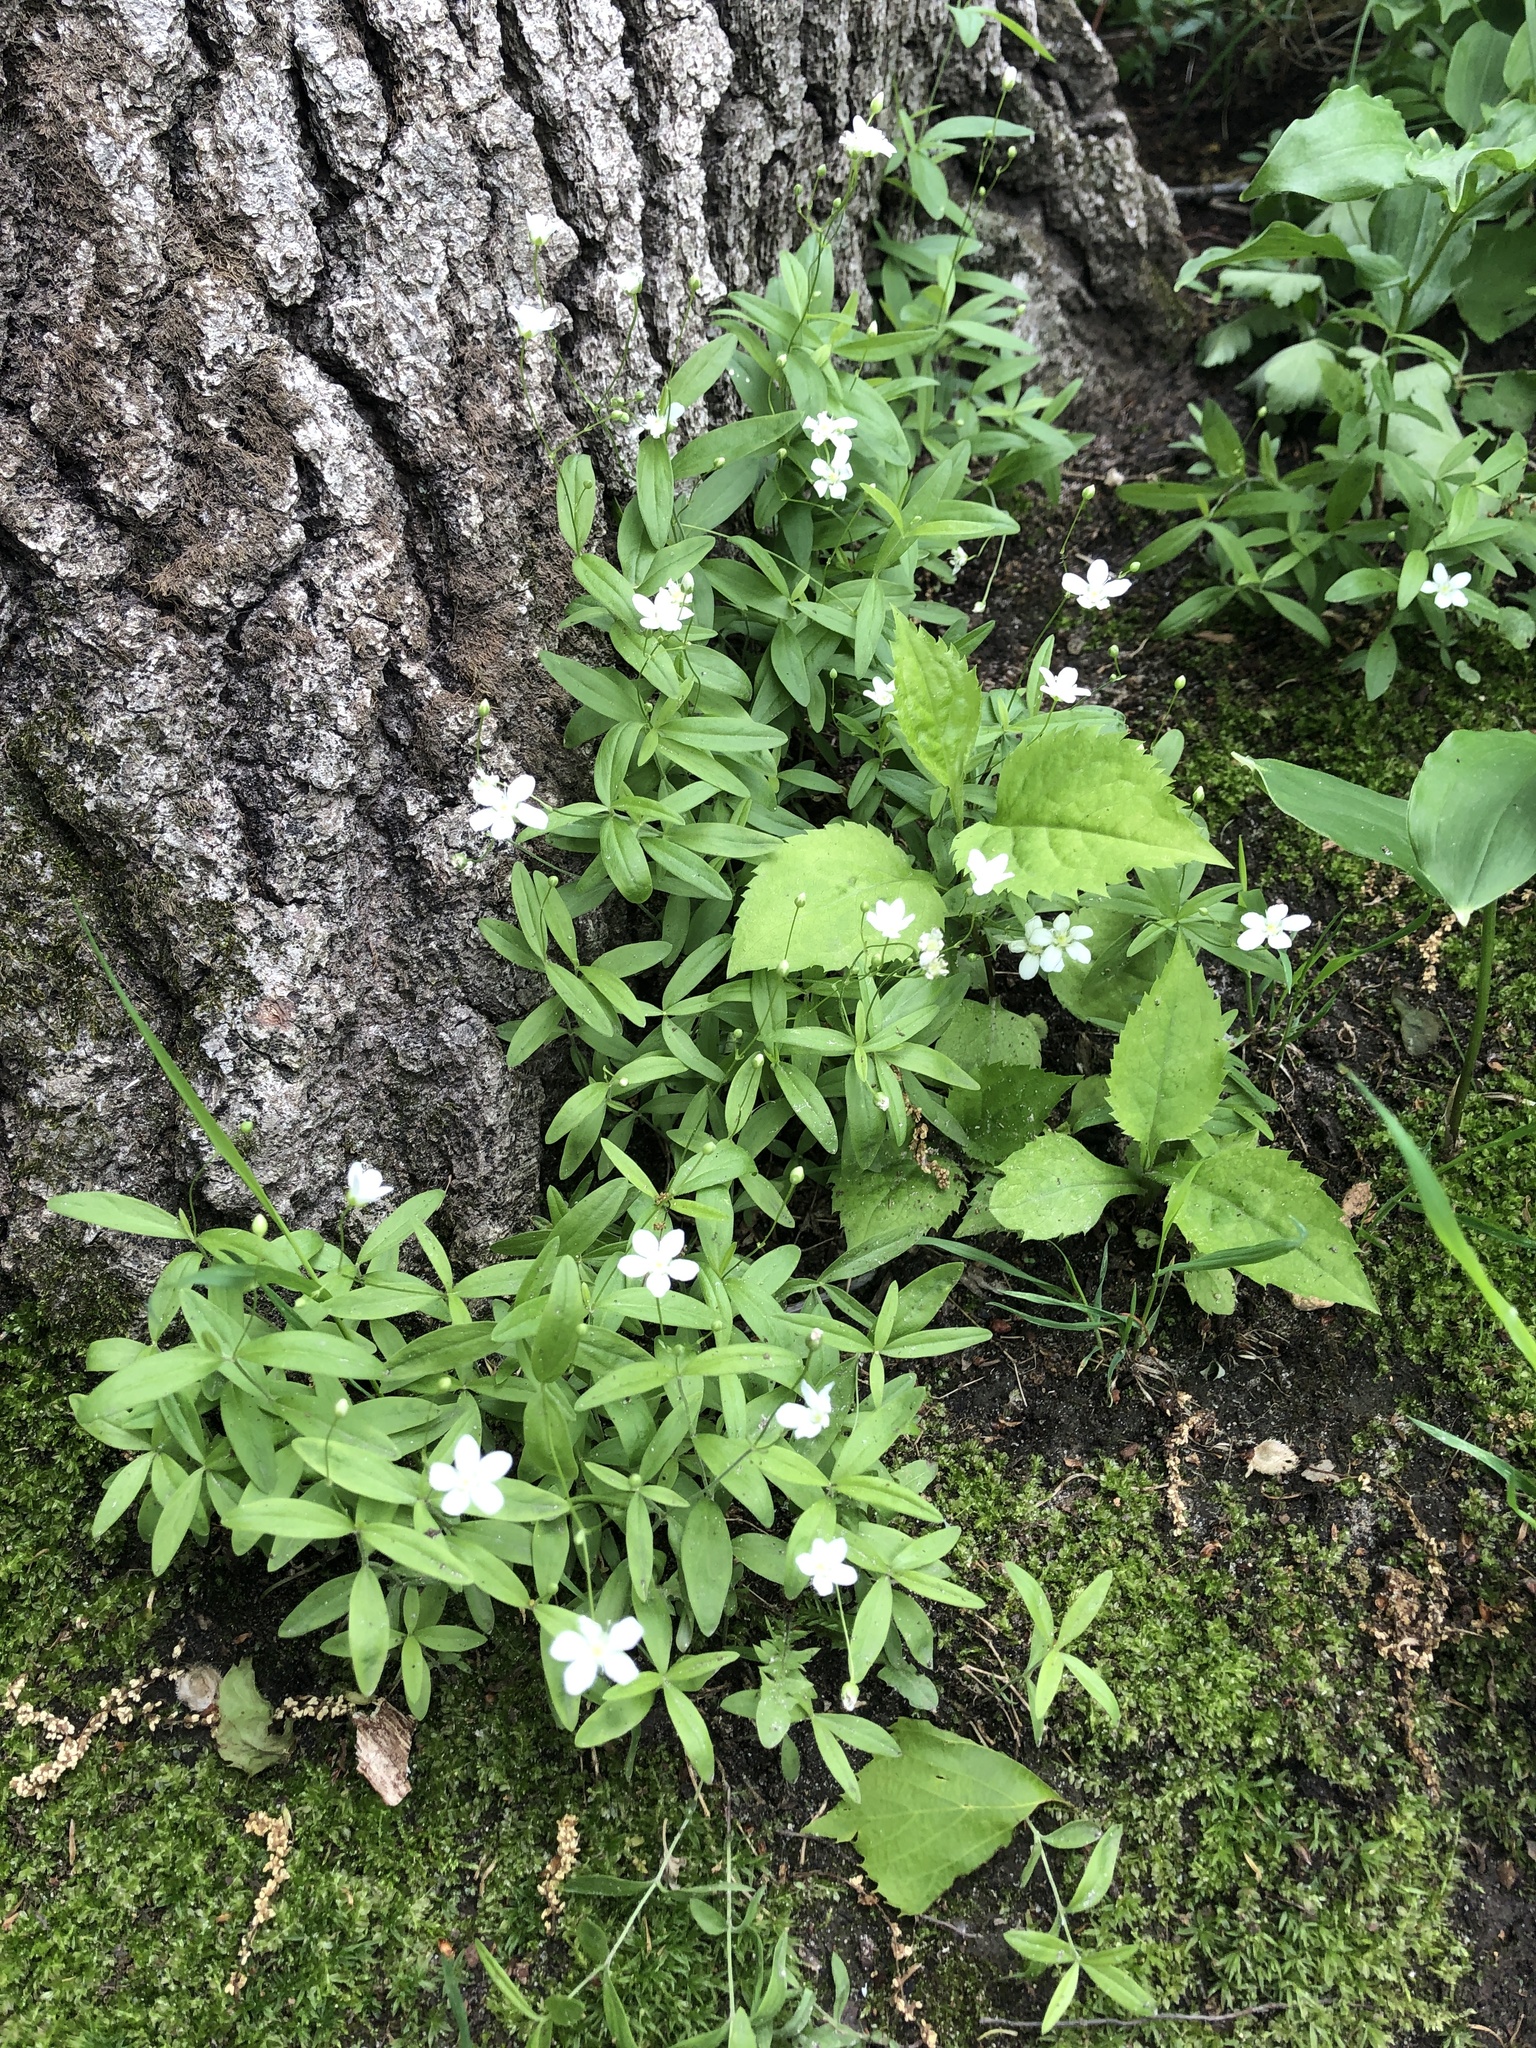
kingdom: Plantae
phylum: Tracheophyta
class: Magnoliopsida
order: Caryophyllales
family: Caryophyllaceae
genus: Moehringia
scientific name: Moehringia lateriflora
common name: Blunt-leaved sandwort
